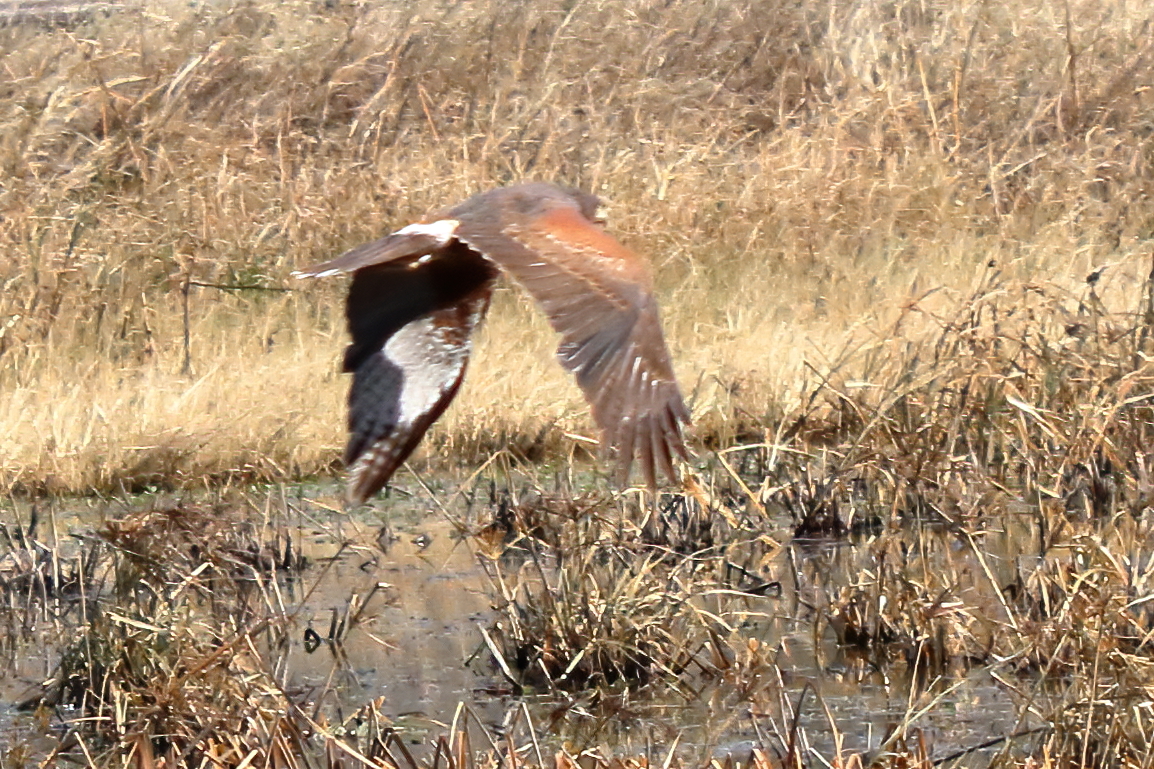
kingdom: Animalia
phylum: Chordata
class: Aves
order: Accipitriformes
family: Accipitridae
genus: Parabuteo
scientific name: Parabuteo unicinctus
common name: Harris's hawk
